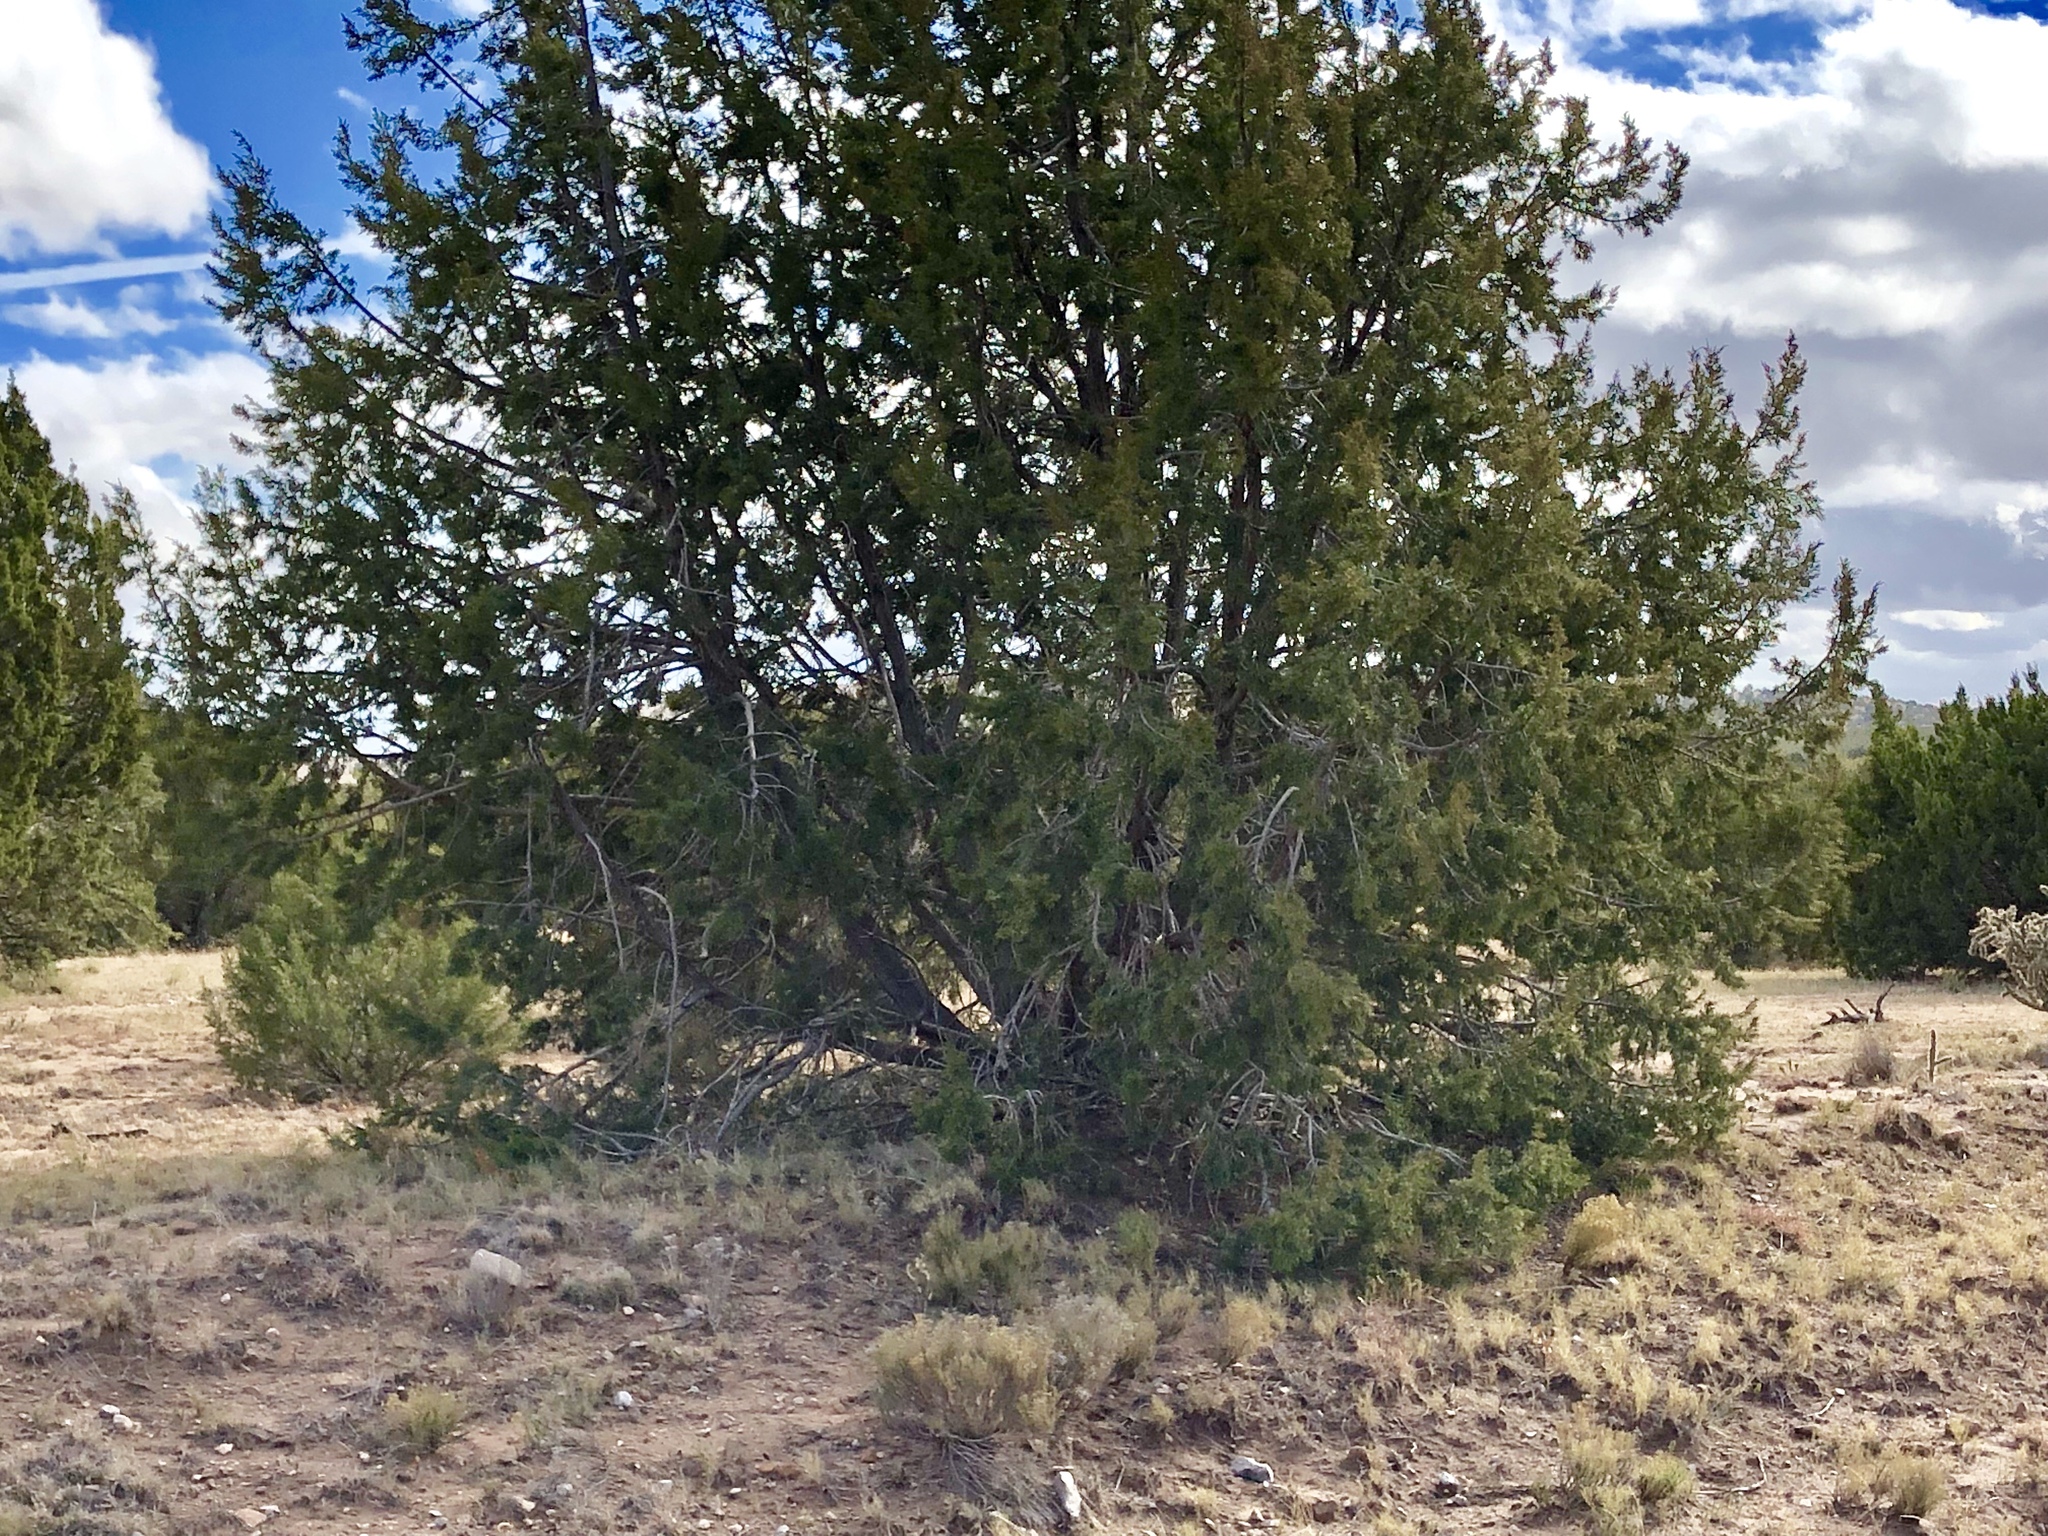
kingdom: Plantae
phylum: Tracheophyta
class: Pinopsida
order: Pinales
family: Cupressaceae
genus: Juniperus
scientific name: Juniperus monosperma
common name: One-seed juniper
